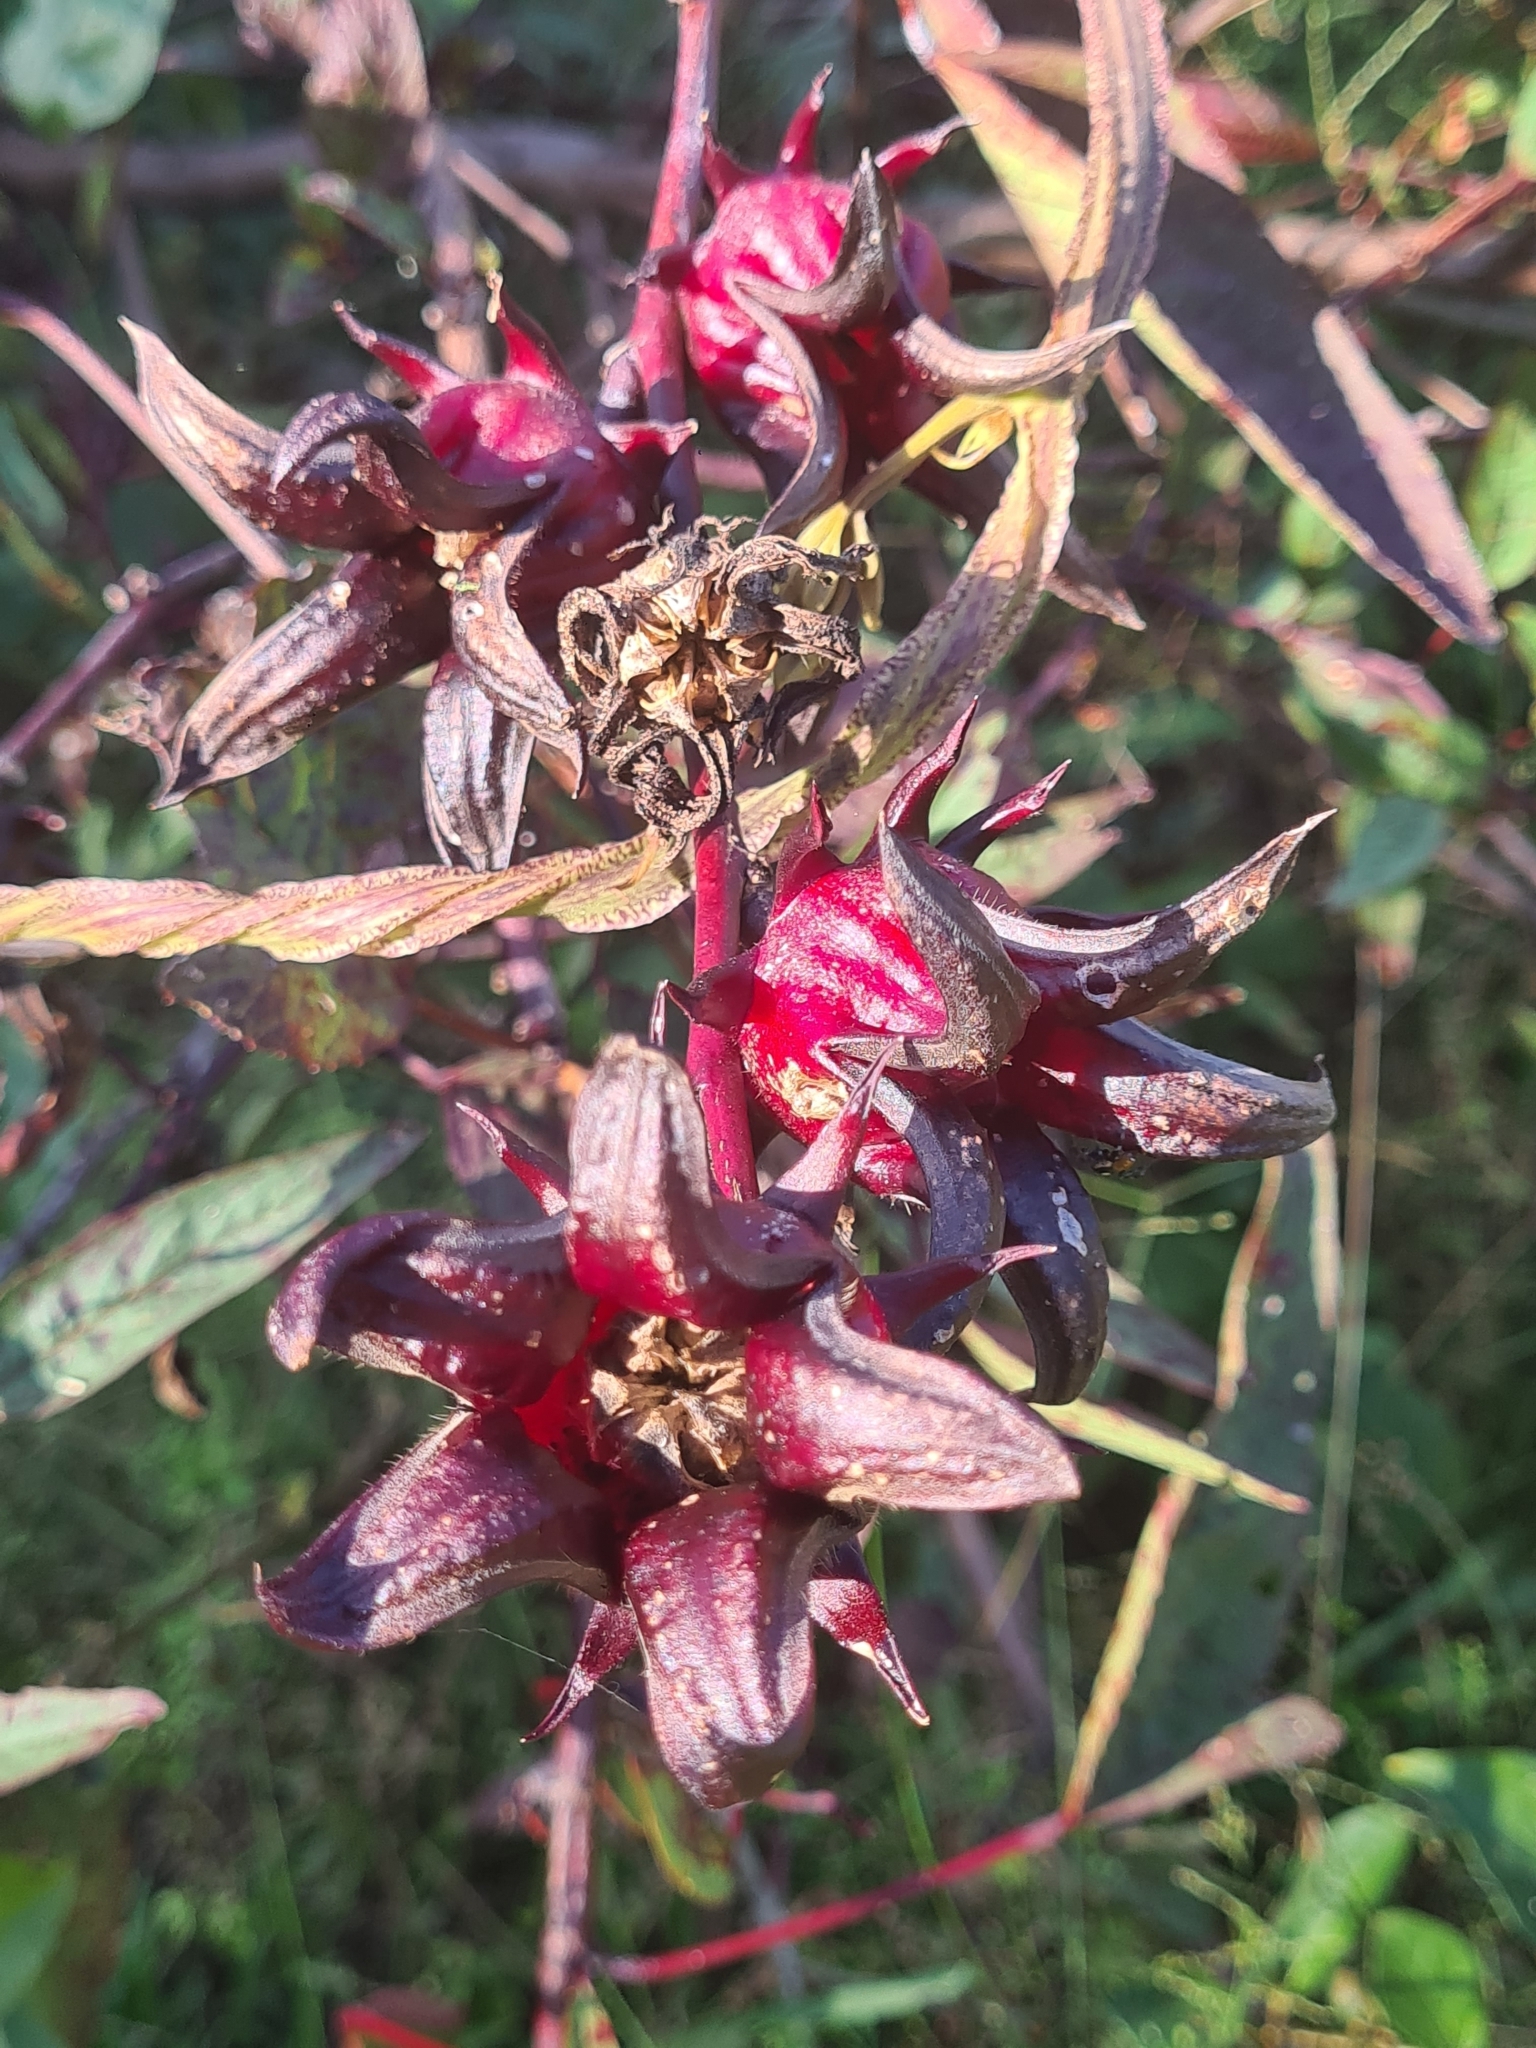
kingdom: Plantae
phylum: Tracheophyta
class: Magnoliopsida
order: Malvales
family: Malvaceae
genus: Hibiscus
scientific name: Hibiscus sabdariffa
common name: Roselle
